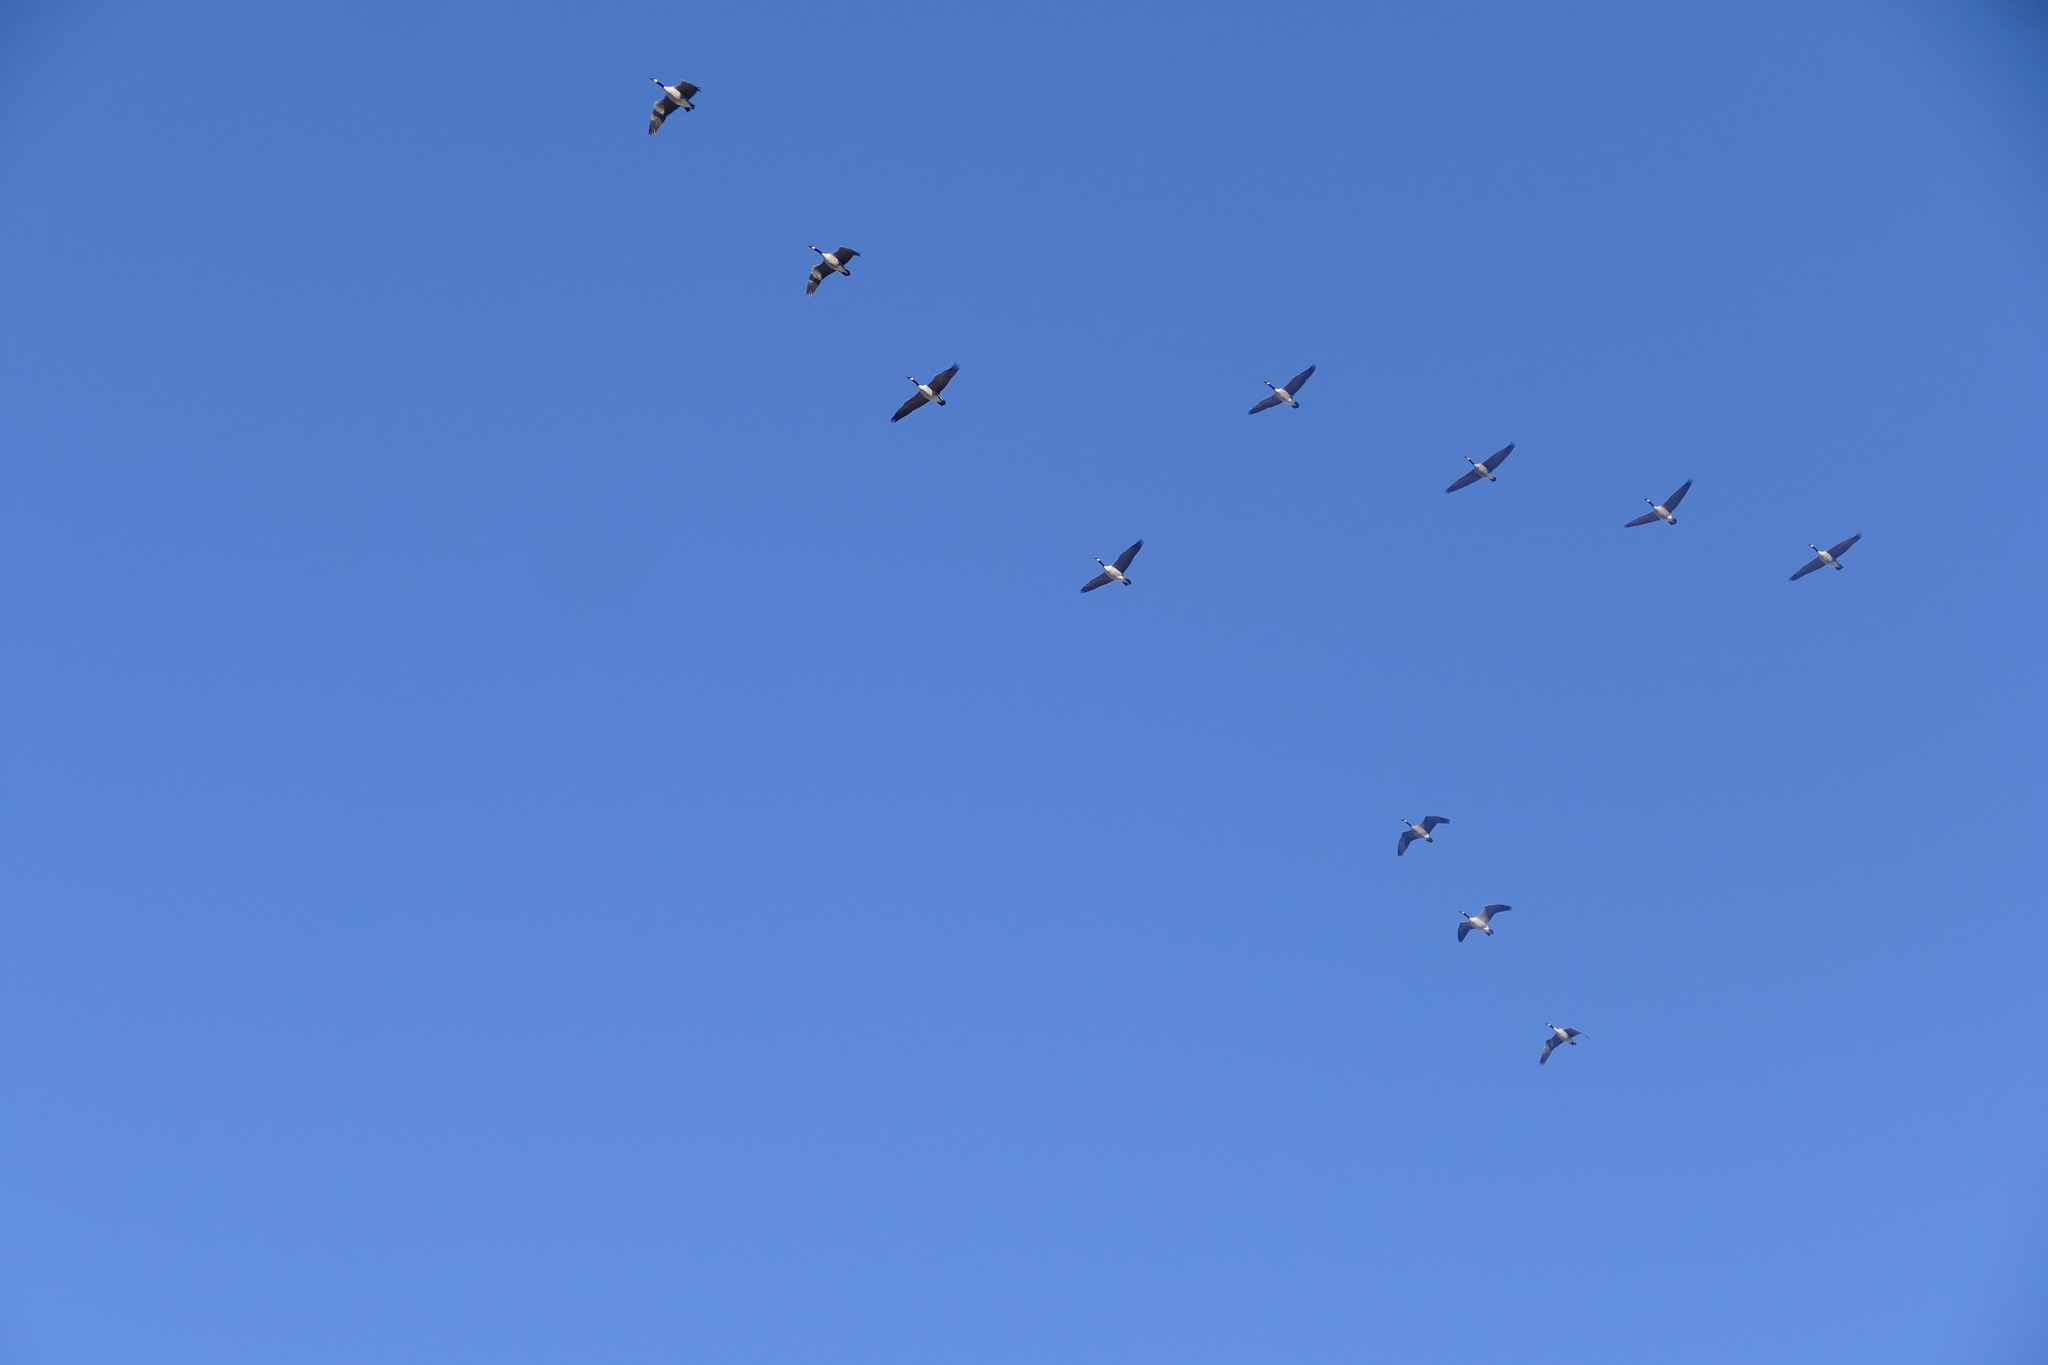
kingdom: Animalia
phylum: Chordata
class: Aves
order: Anseriformes
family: Anatidae
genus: Branta
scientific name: Branta canadensis
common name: Canada goose
